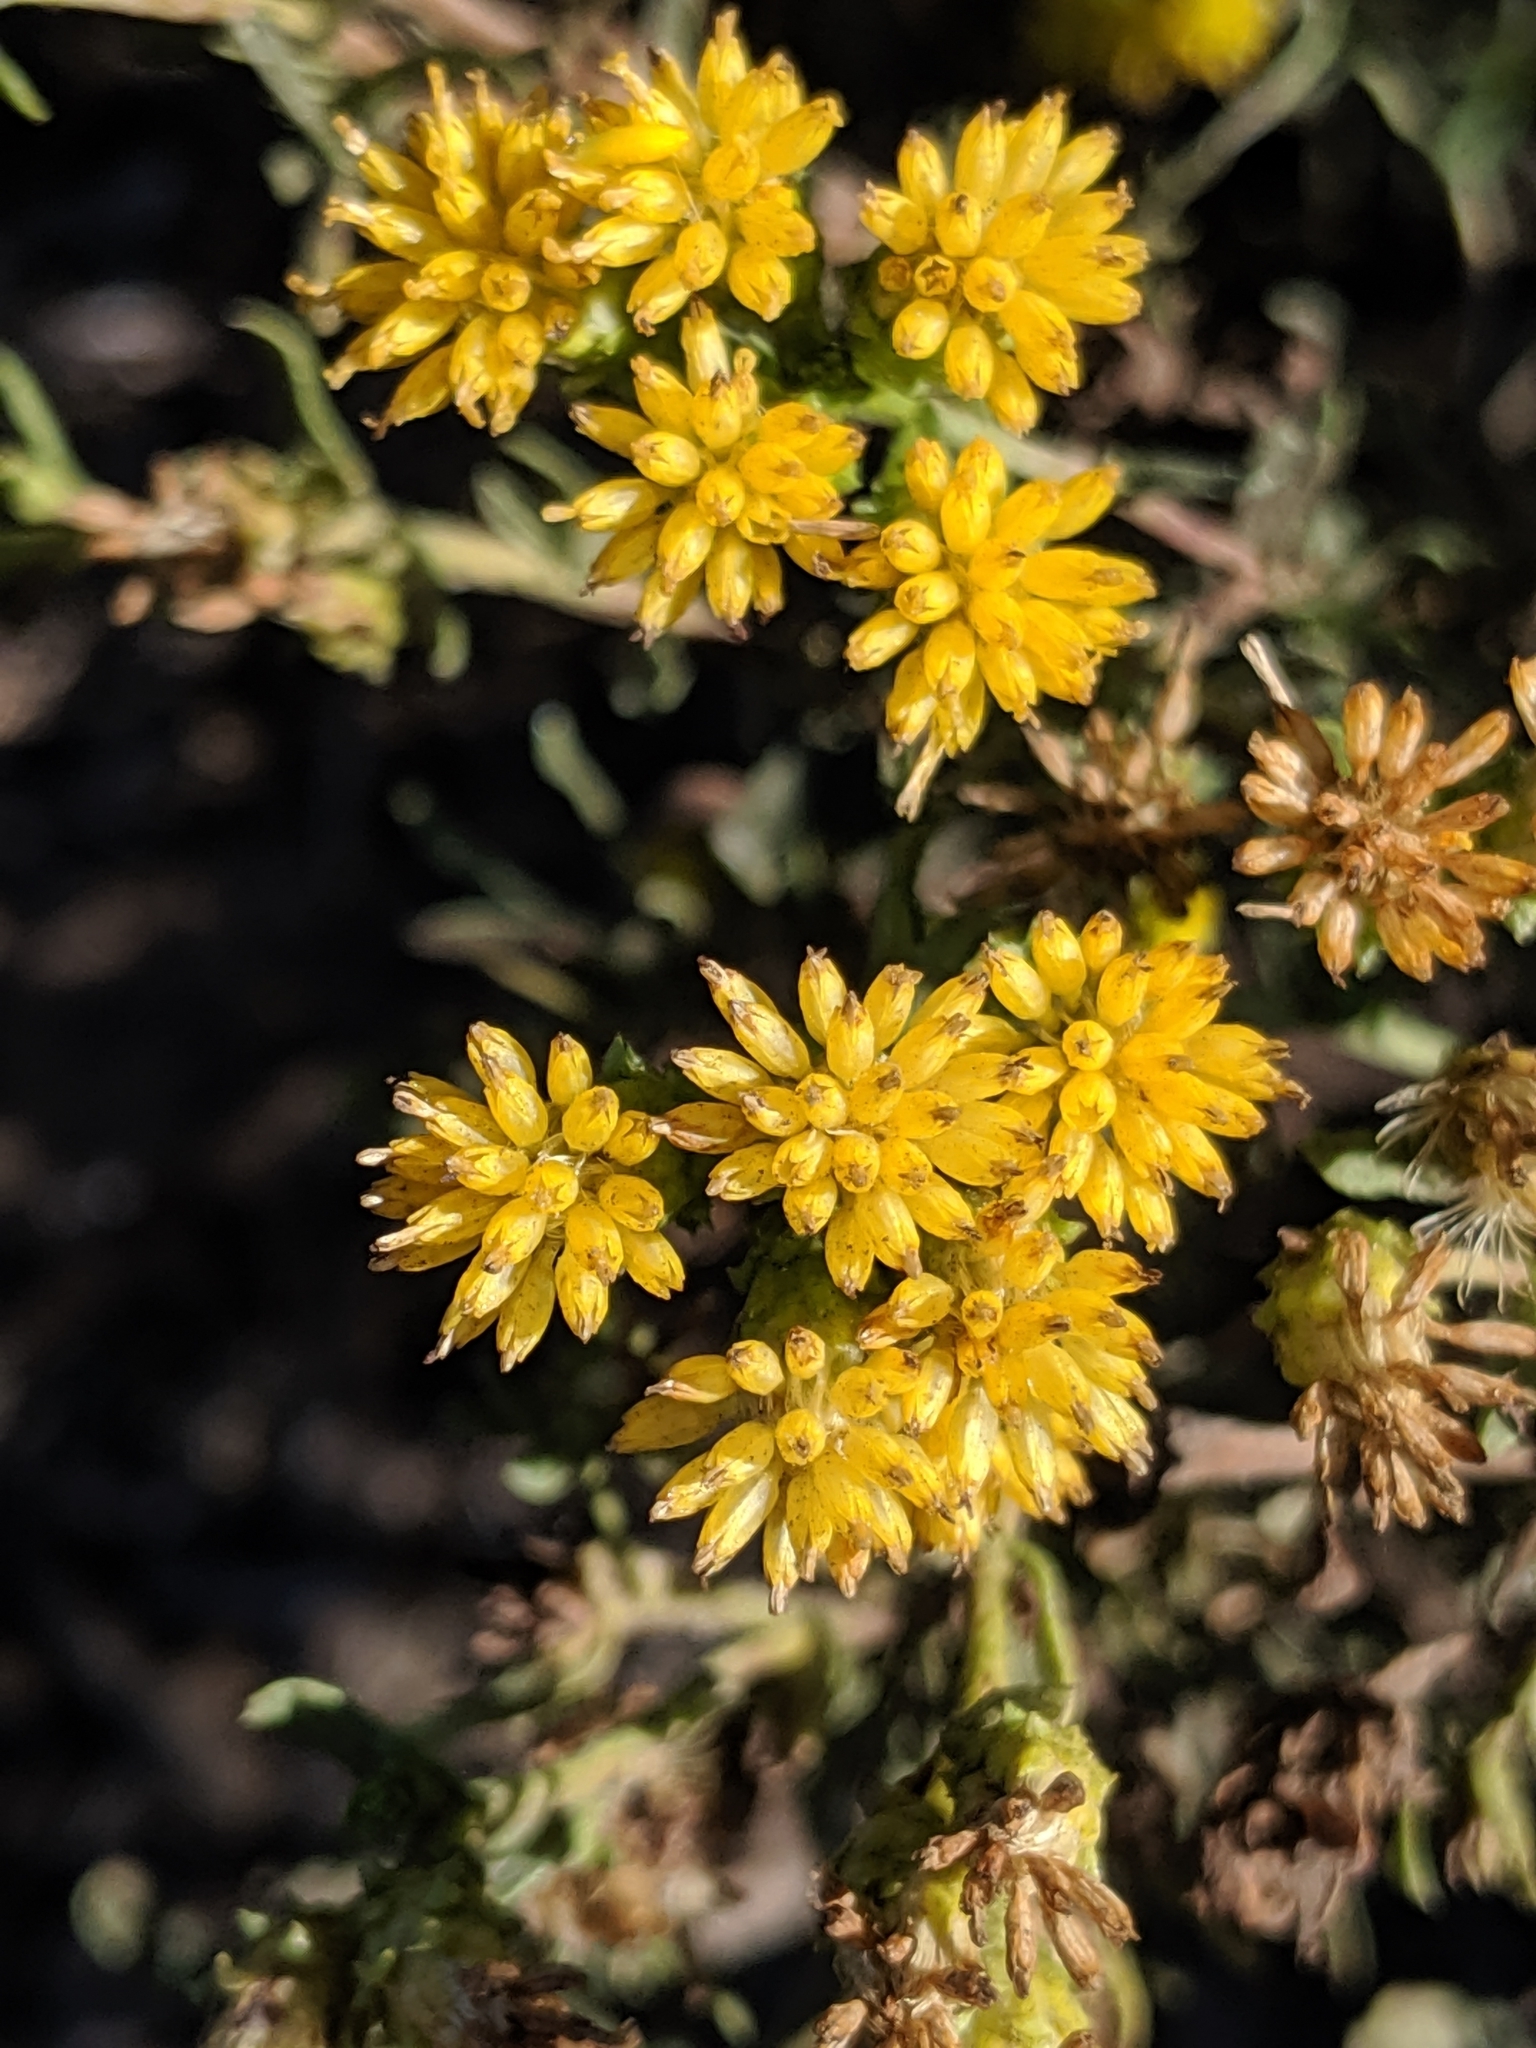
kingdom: Plantae
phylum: Tracheophyta
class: Magnoliopsida
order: Asterales
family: Asteraceae
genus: Isocoma
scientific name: Isocoma menziesii
